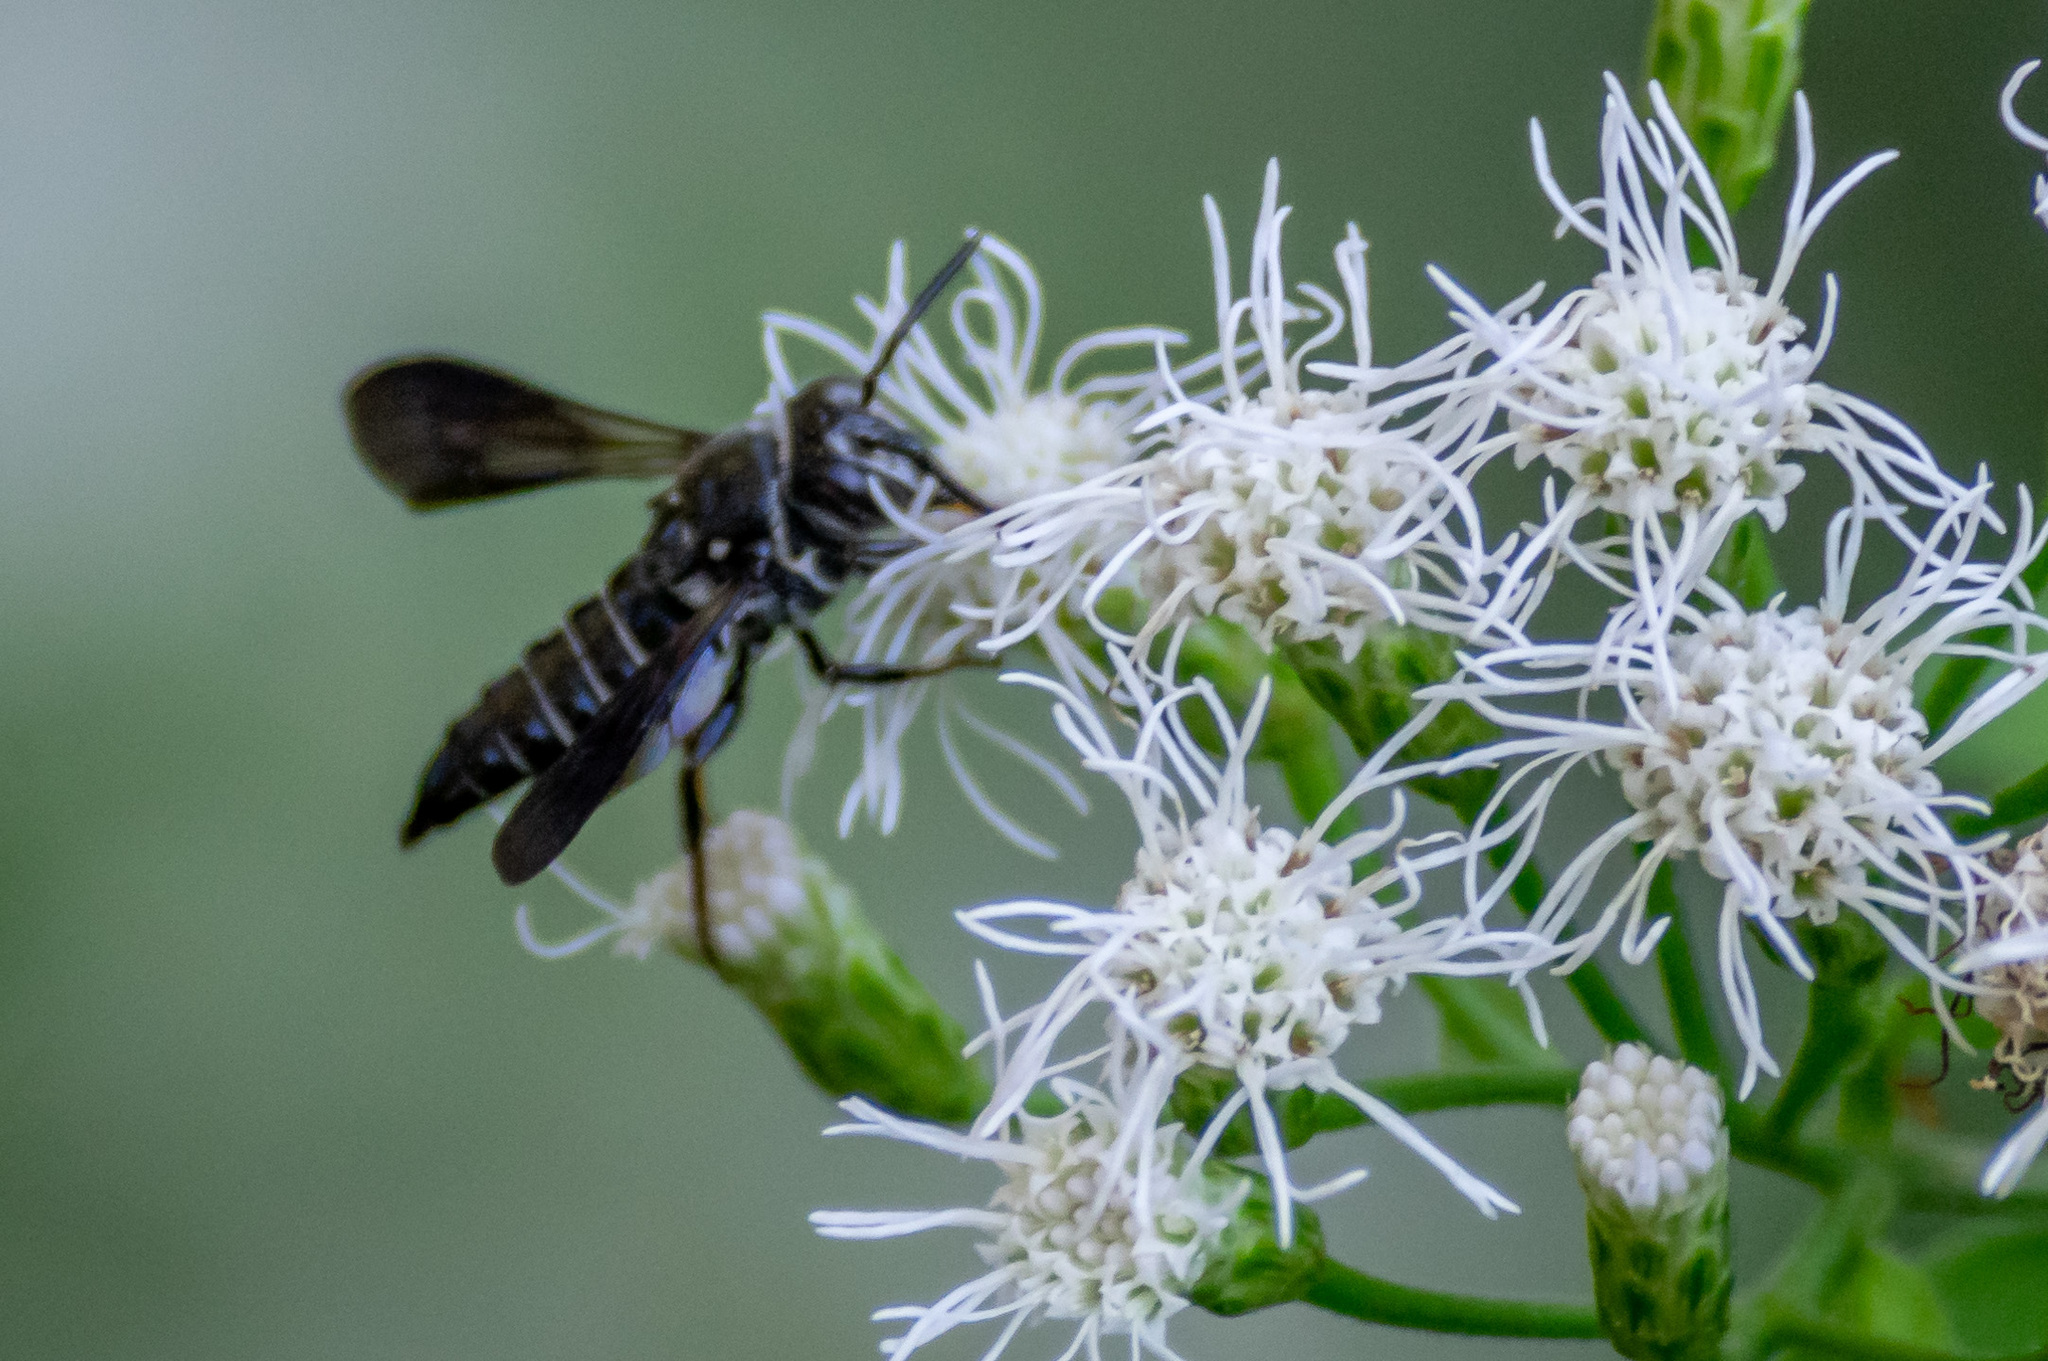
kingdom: Animalia
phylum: Arthropoda
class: Insecta
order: Hymenoptera
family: Megachilidae
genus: Coelioxys
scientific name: Coelioxys dolichos
